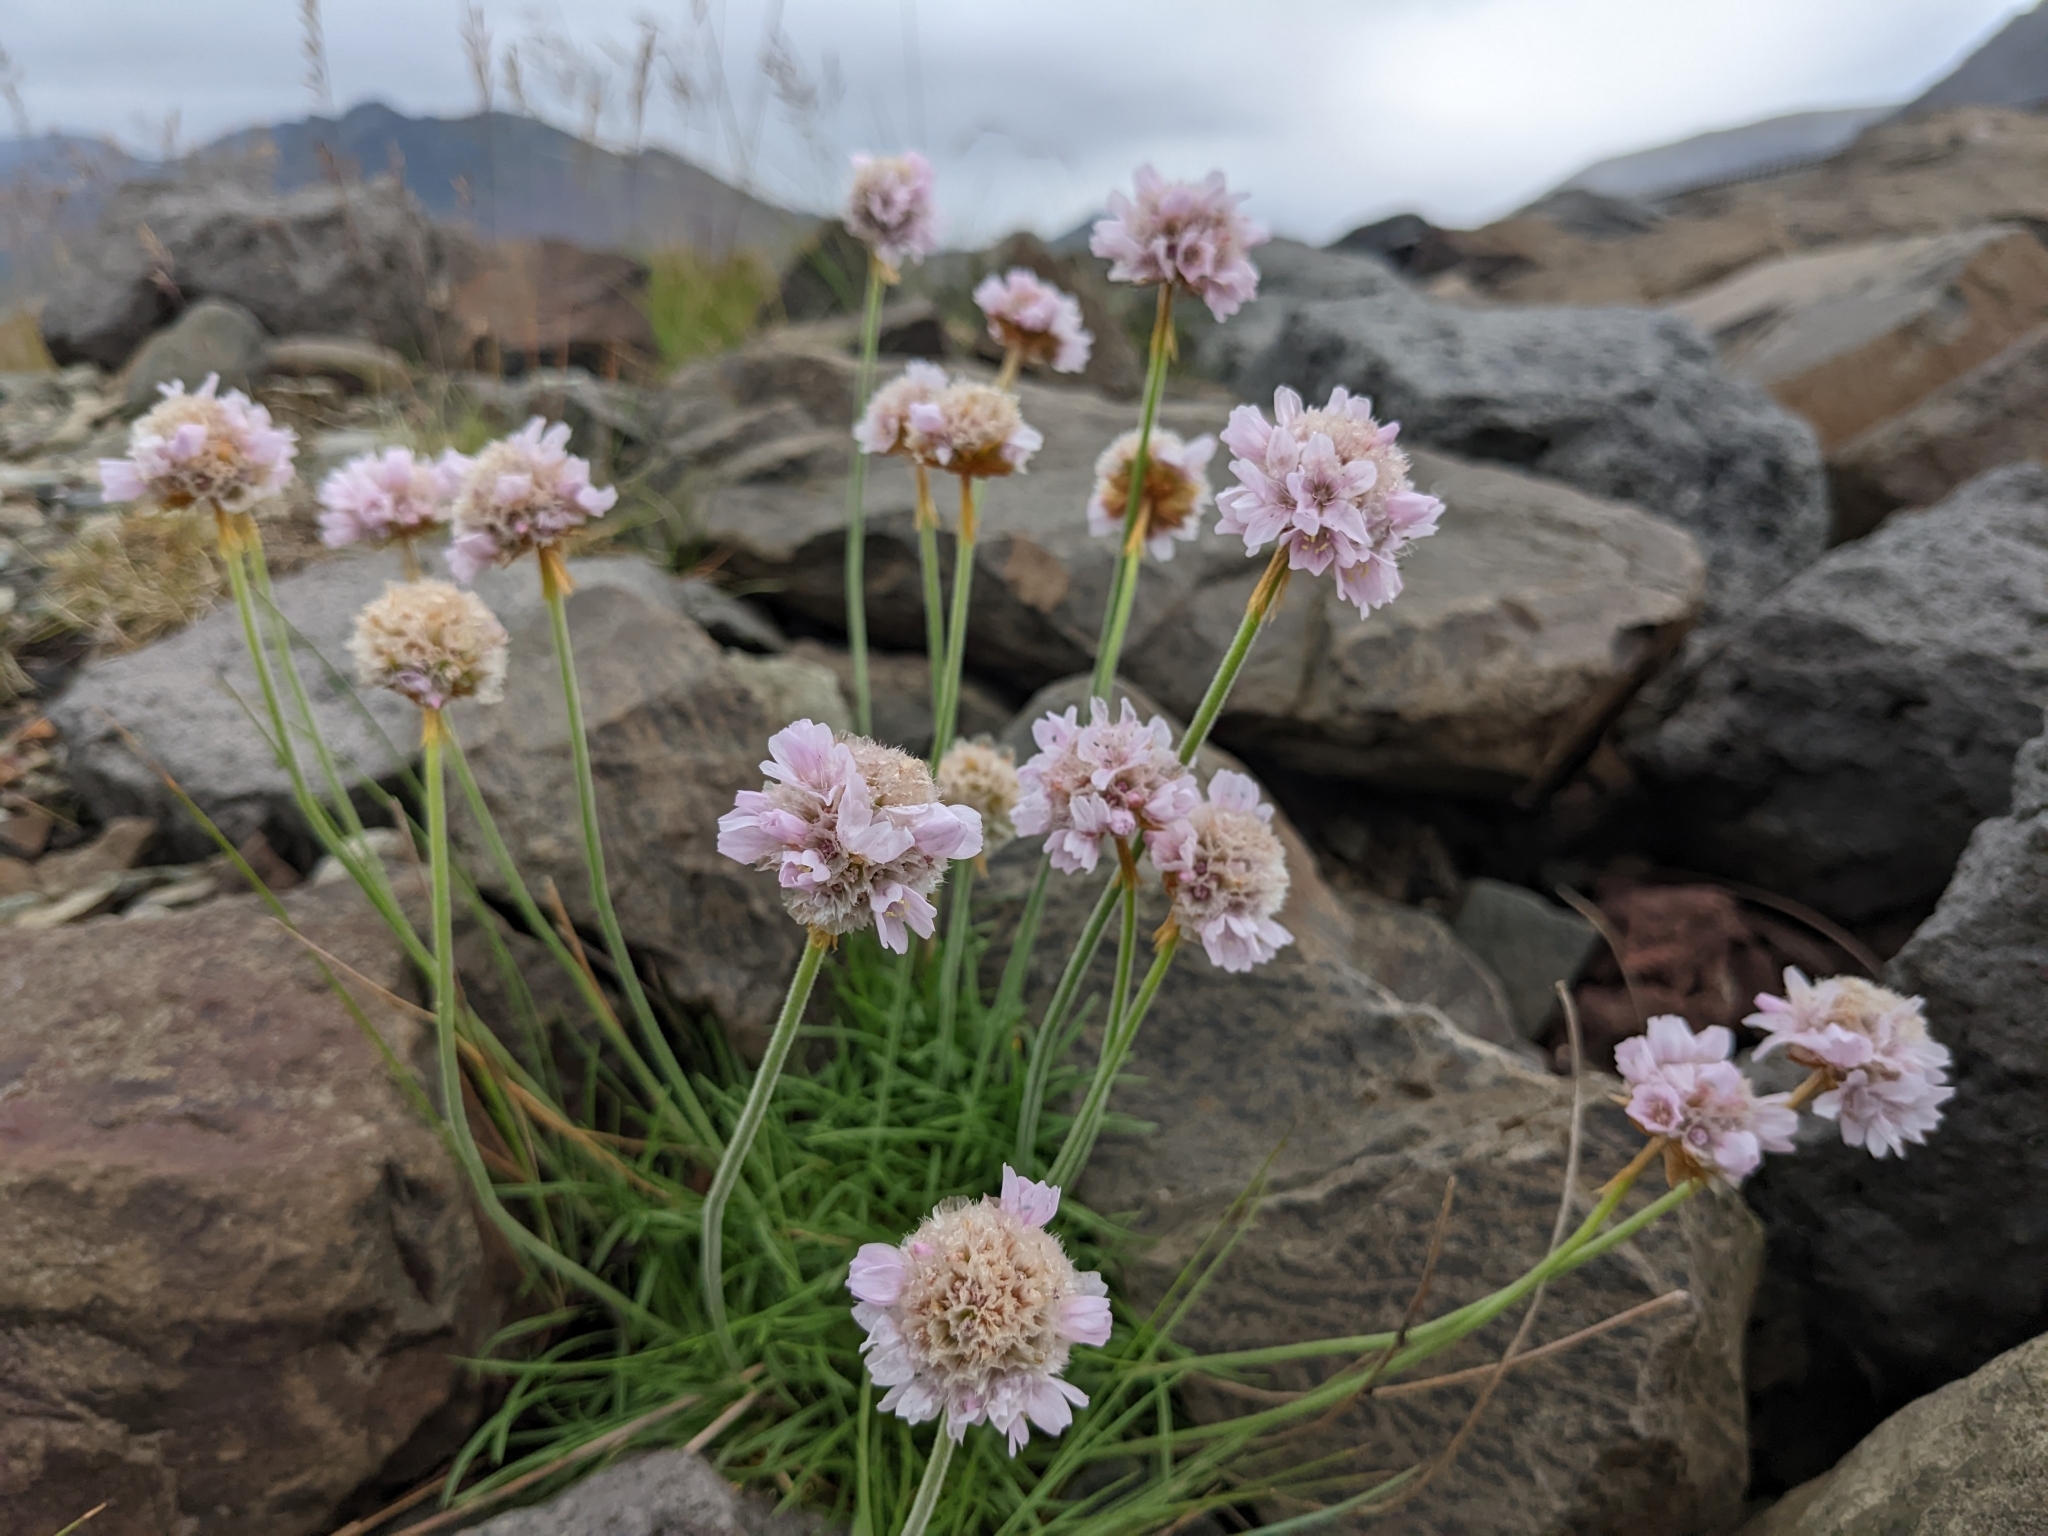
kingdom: Plantae
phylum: Tracheophyta
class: Magnoliopsida
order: Caryophyllales
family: Plumbaginaceae
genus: Armeria
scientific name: Armeria maritima
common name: Thrift
